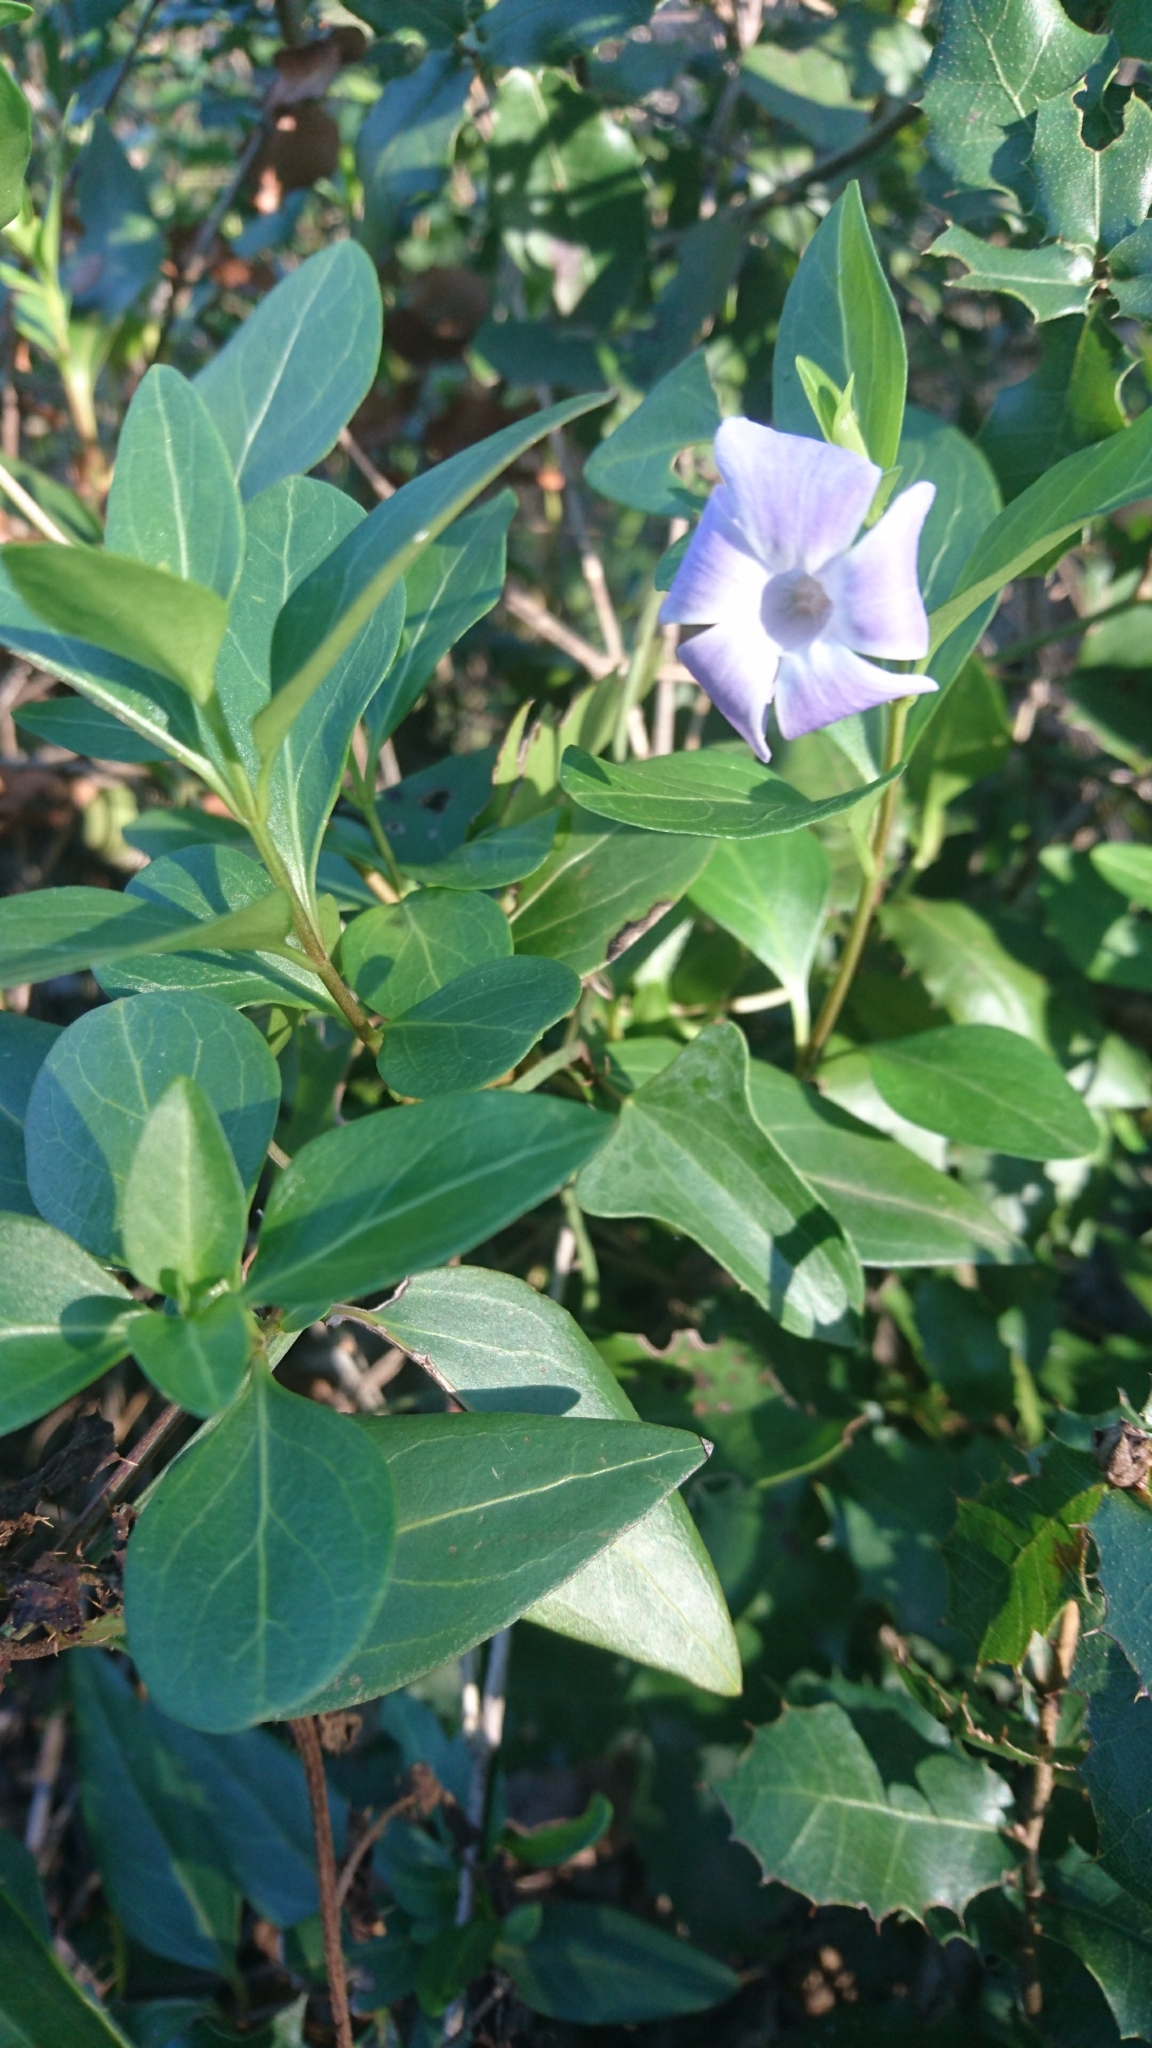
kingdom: Plantae
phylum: Tracheophyta
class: Magnoliopsida
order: Gentianales
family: Apocynaceae
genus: Vinca
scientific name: Vinca difformis
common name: Intermediate periwinkle
